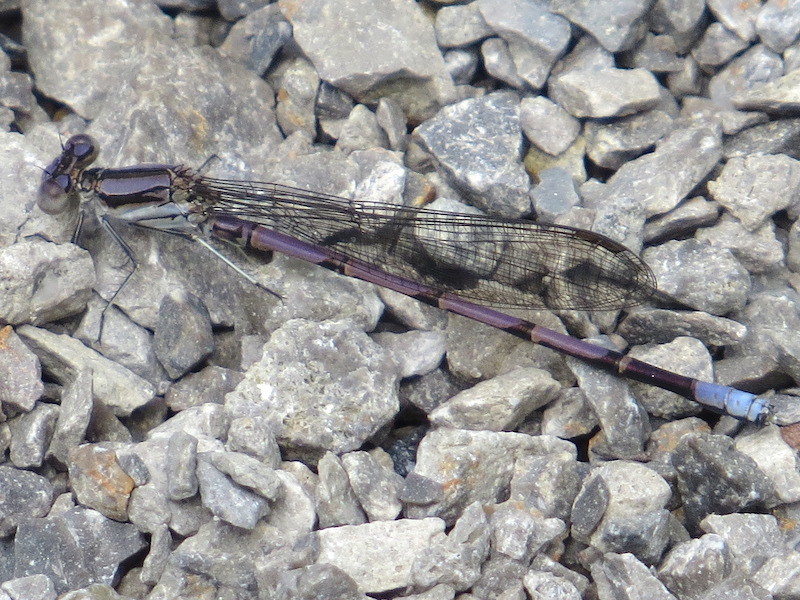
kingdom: Animalia
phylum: Arthropoda
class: Insecta
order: Odonata
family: Coenagrionidae
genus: Argia
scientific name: Argia fumipennis
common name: Variable dancer
